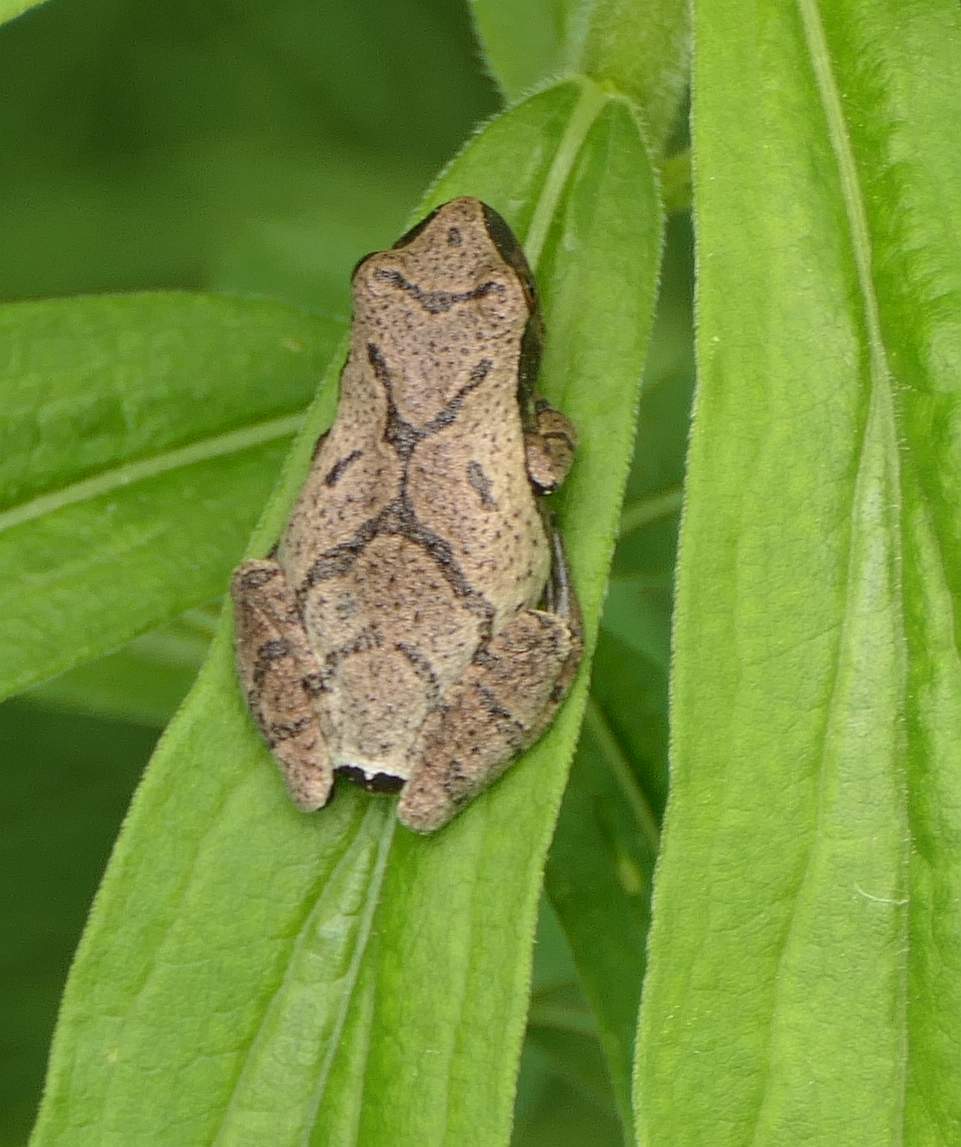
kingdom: Animalia
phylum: Chordata
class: Amphibia
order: Anura
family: Hylidae
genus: Pseudacris
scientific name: Pseudacris crucifer
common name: Spring peeper
